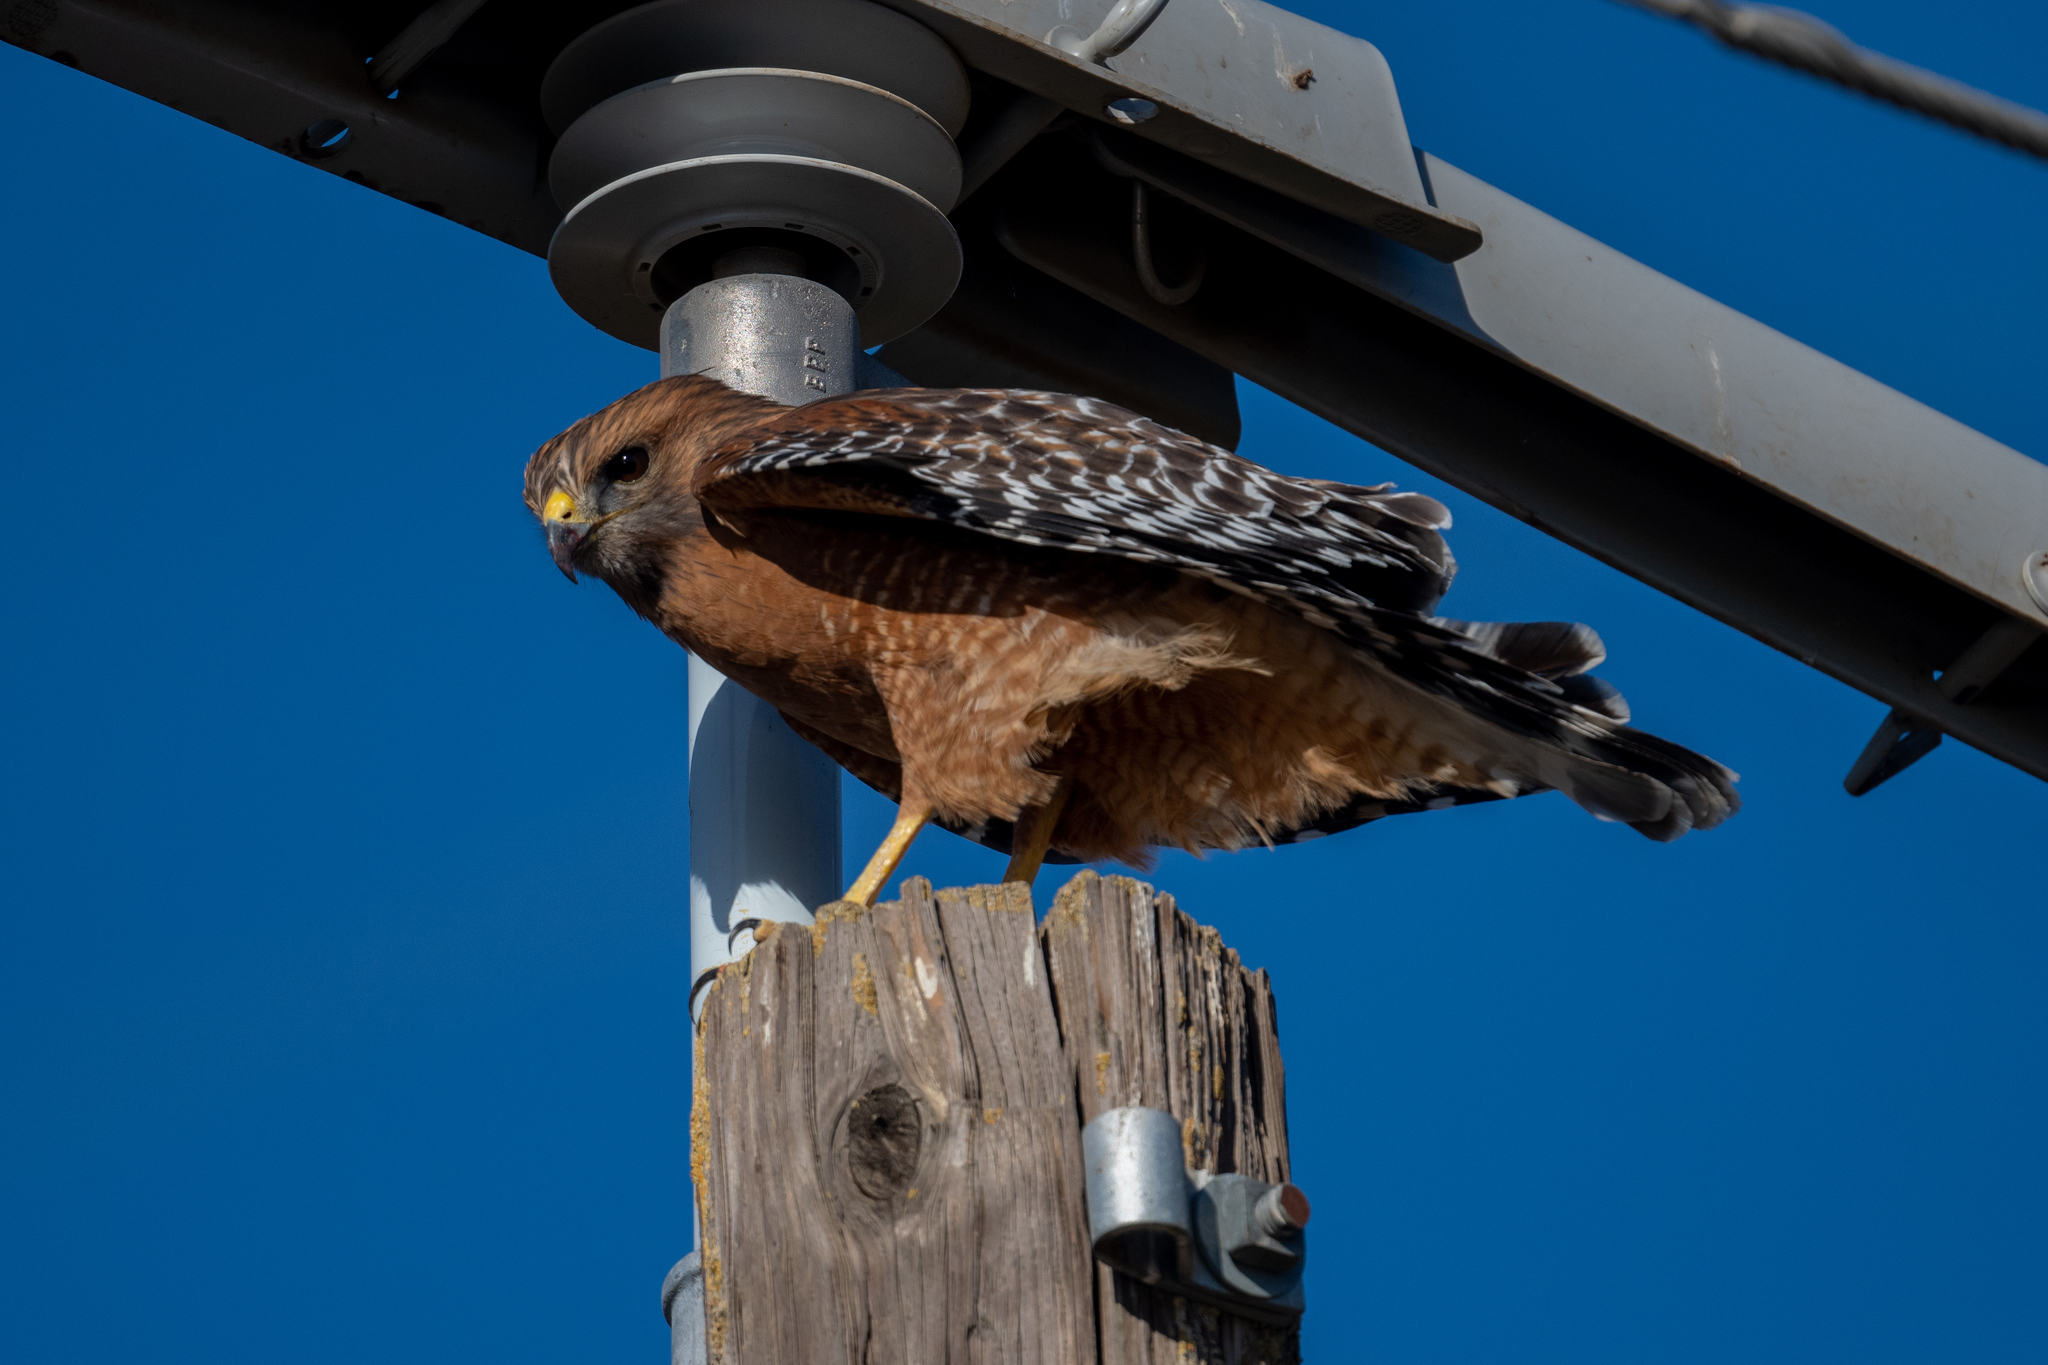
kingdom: Animalia
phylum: Chordata
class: Aves
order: Accipitriformes
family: Accipitridae
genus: Buteo
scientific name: Buteo lineatus
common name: Red-shouldered hawk
